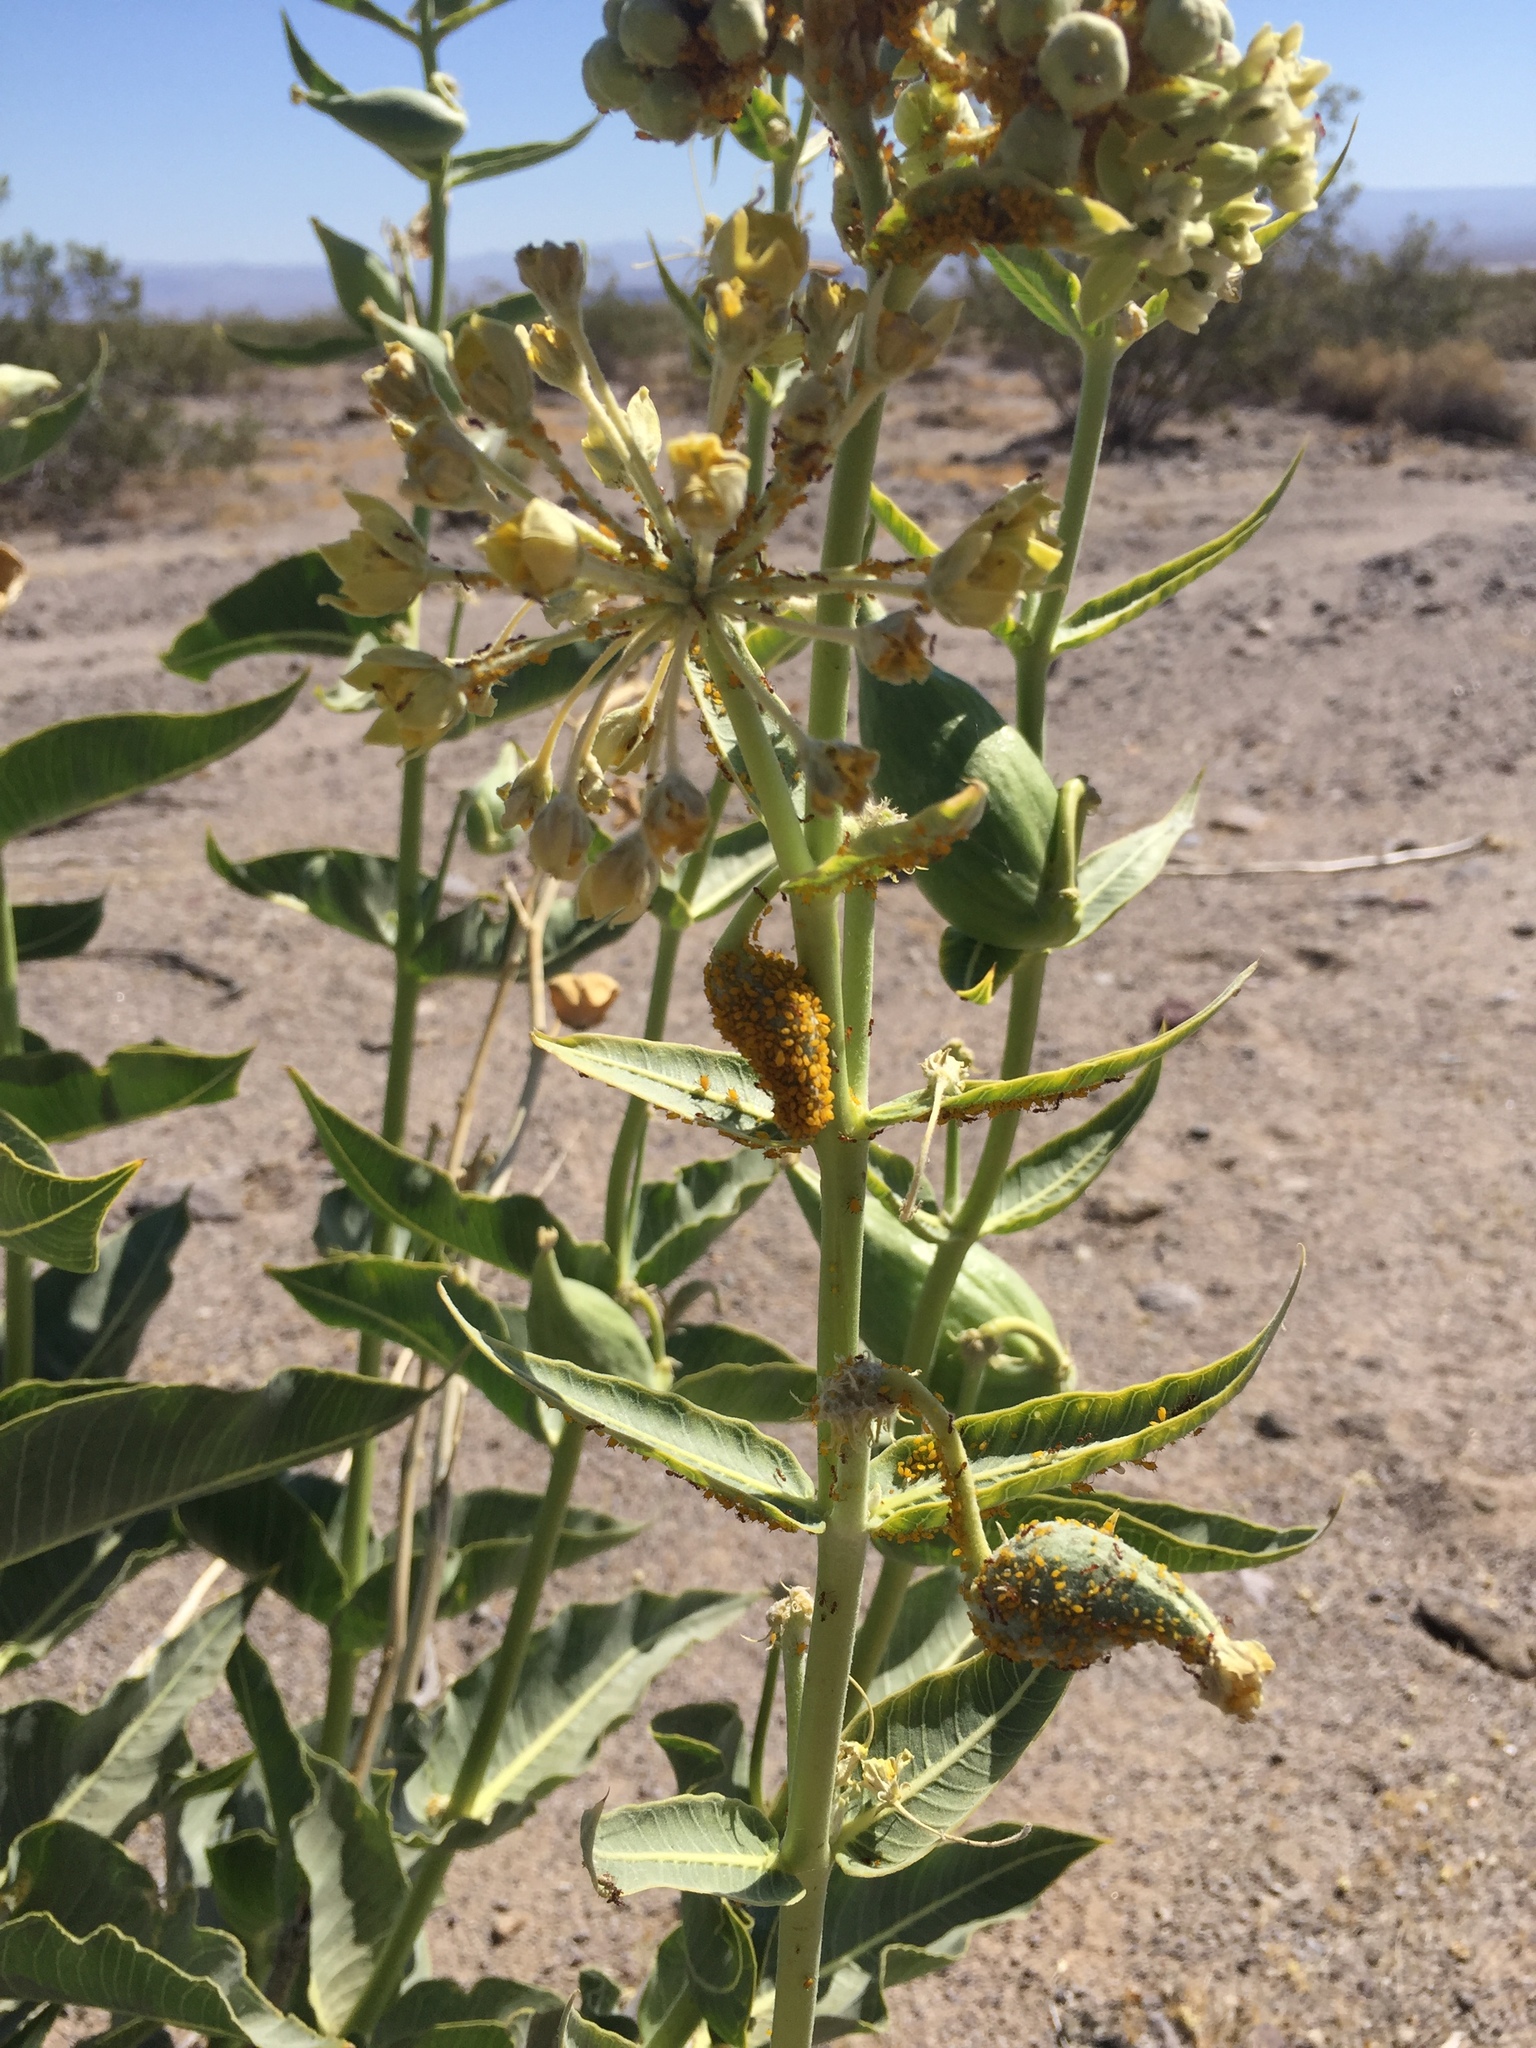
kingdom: Animalia
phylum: Arthropoda
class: Insecta
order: Hemiptera
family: Aphididae
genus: Aphis
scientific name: Aphis nerii
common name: Oleander aphid
